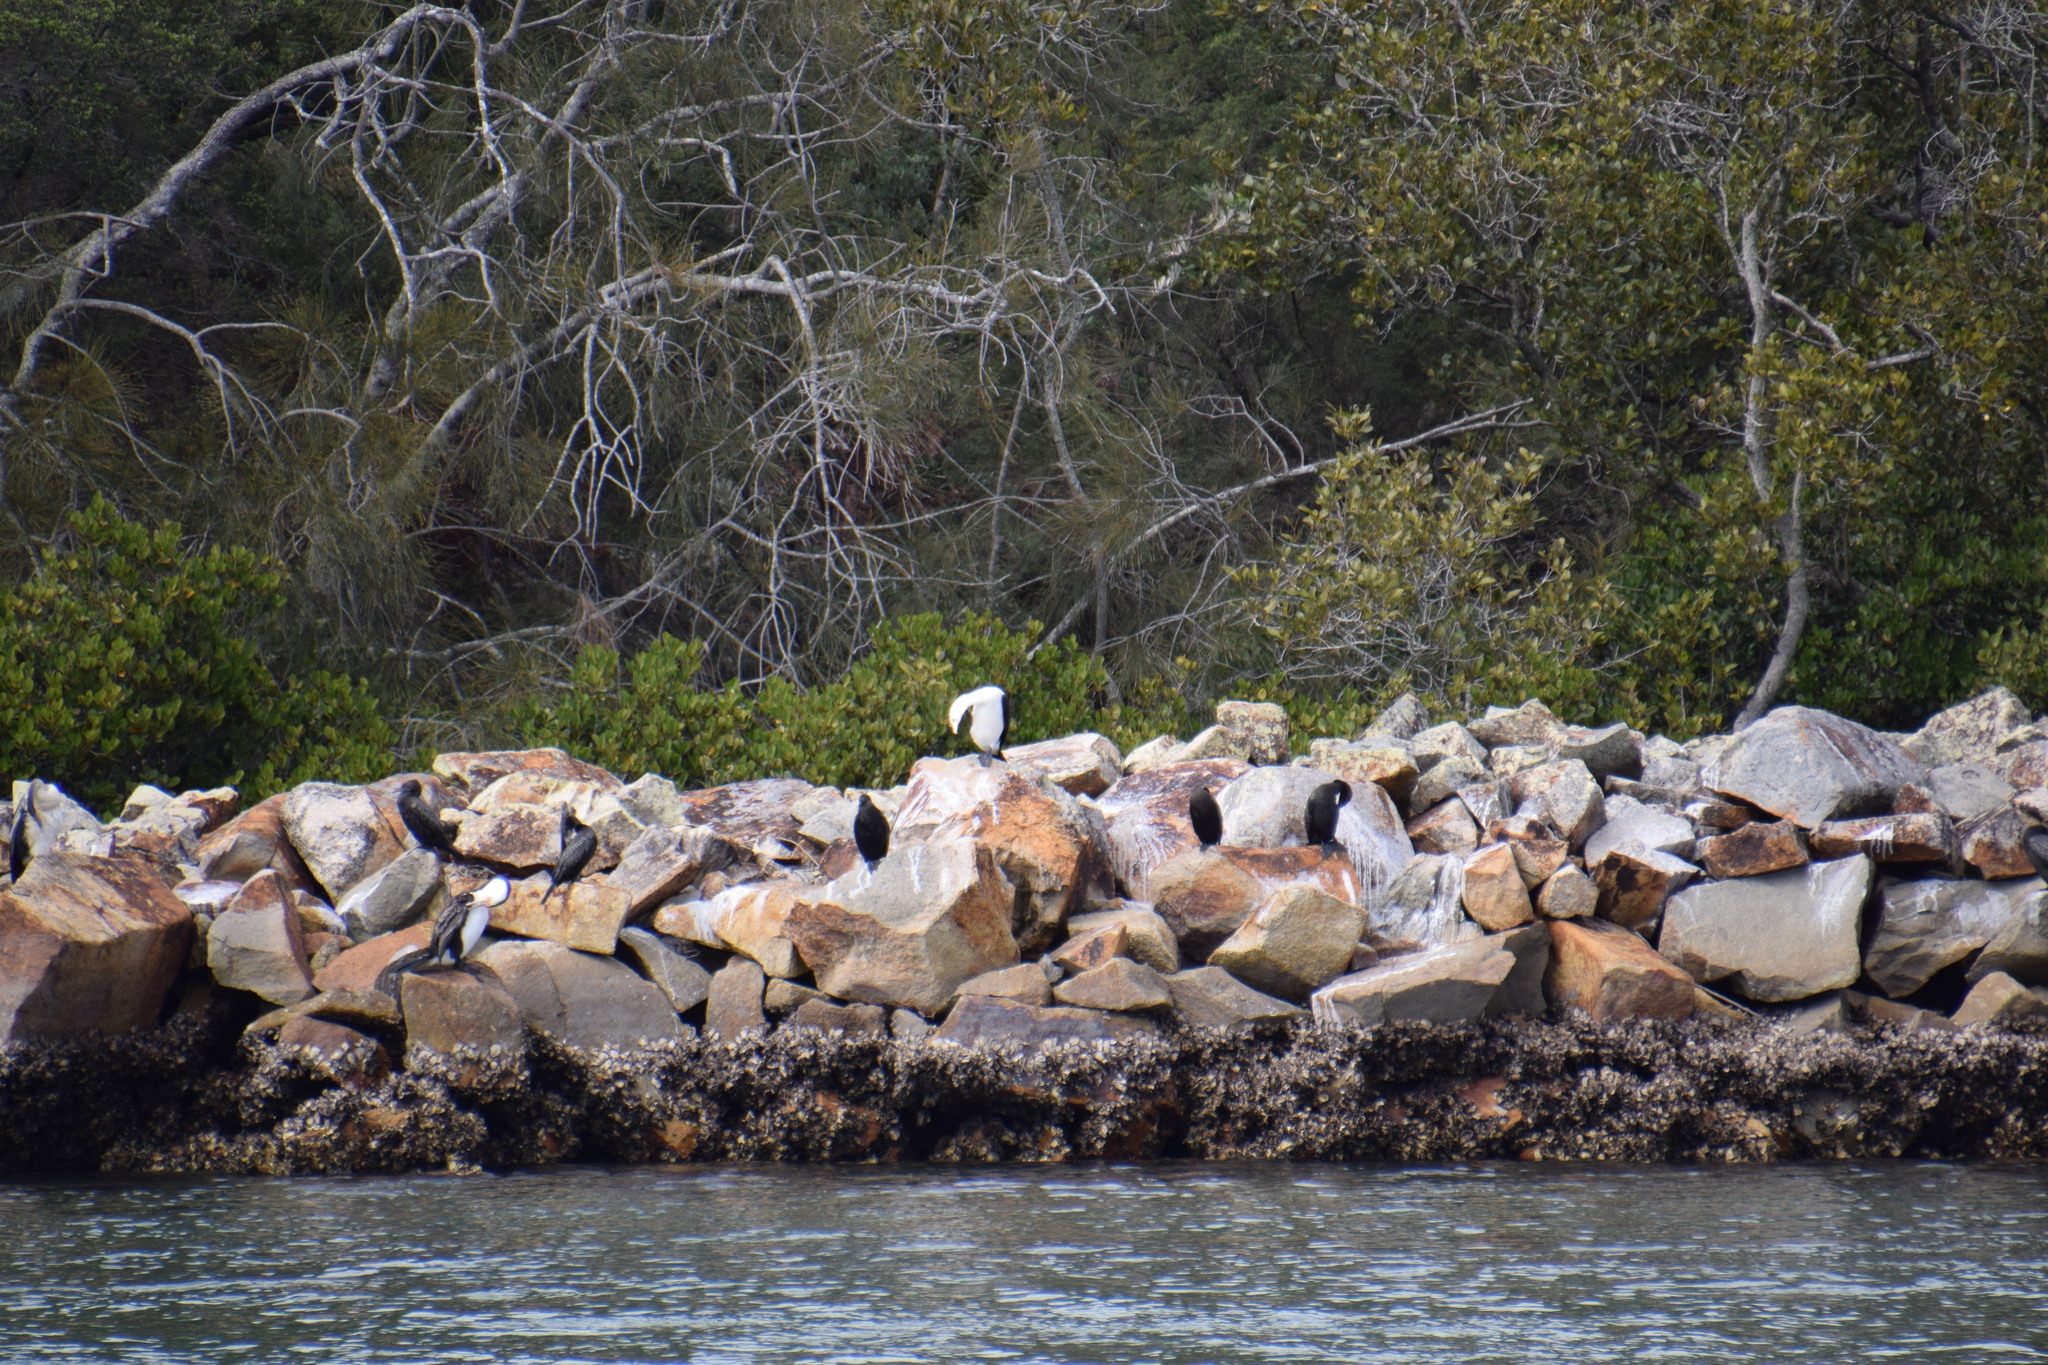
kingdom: Animalia
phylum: Chordata
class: Aves
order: Suliformes
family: Phalacrocoracidae
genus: Phalacrocorax
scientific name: Phalacrocorax sulcirostris
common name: Little black cormorant
